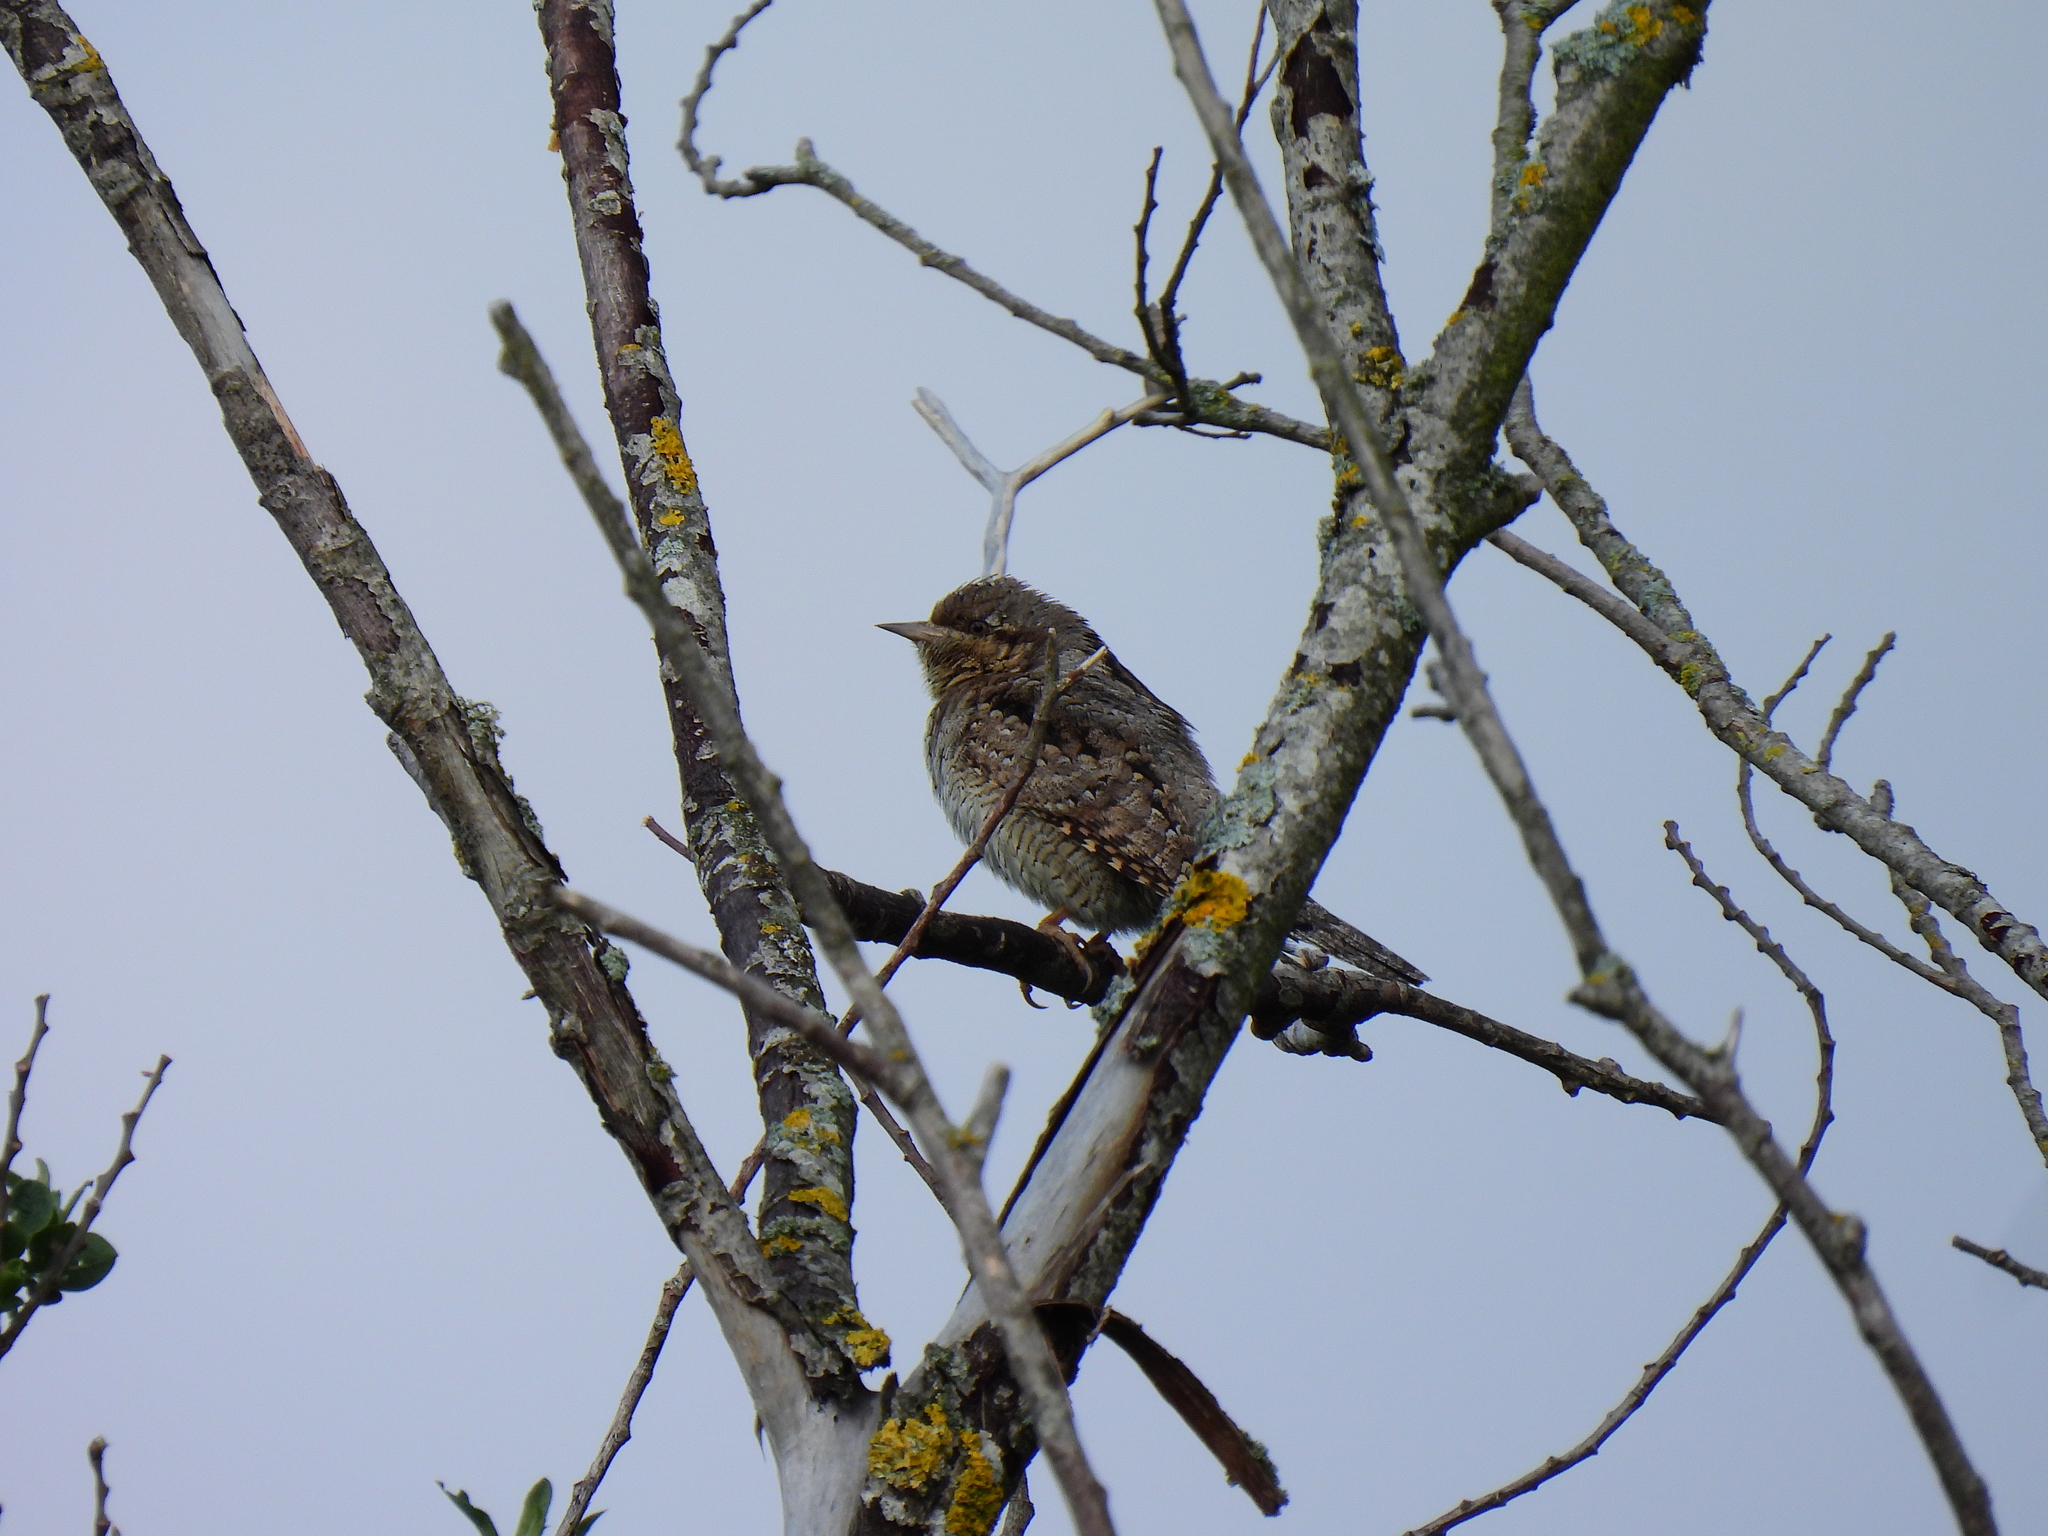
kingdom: Animalia
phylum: Chordata
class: Aves
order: Piciformes
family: Picidae
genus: Jynx
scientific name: Jynx torquilla
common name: Eurasian wryneck
